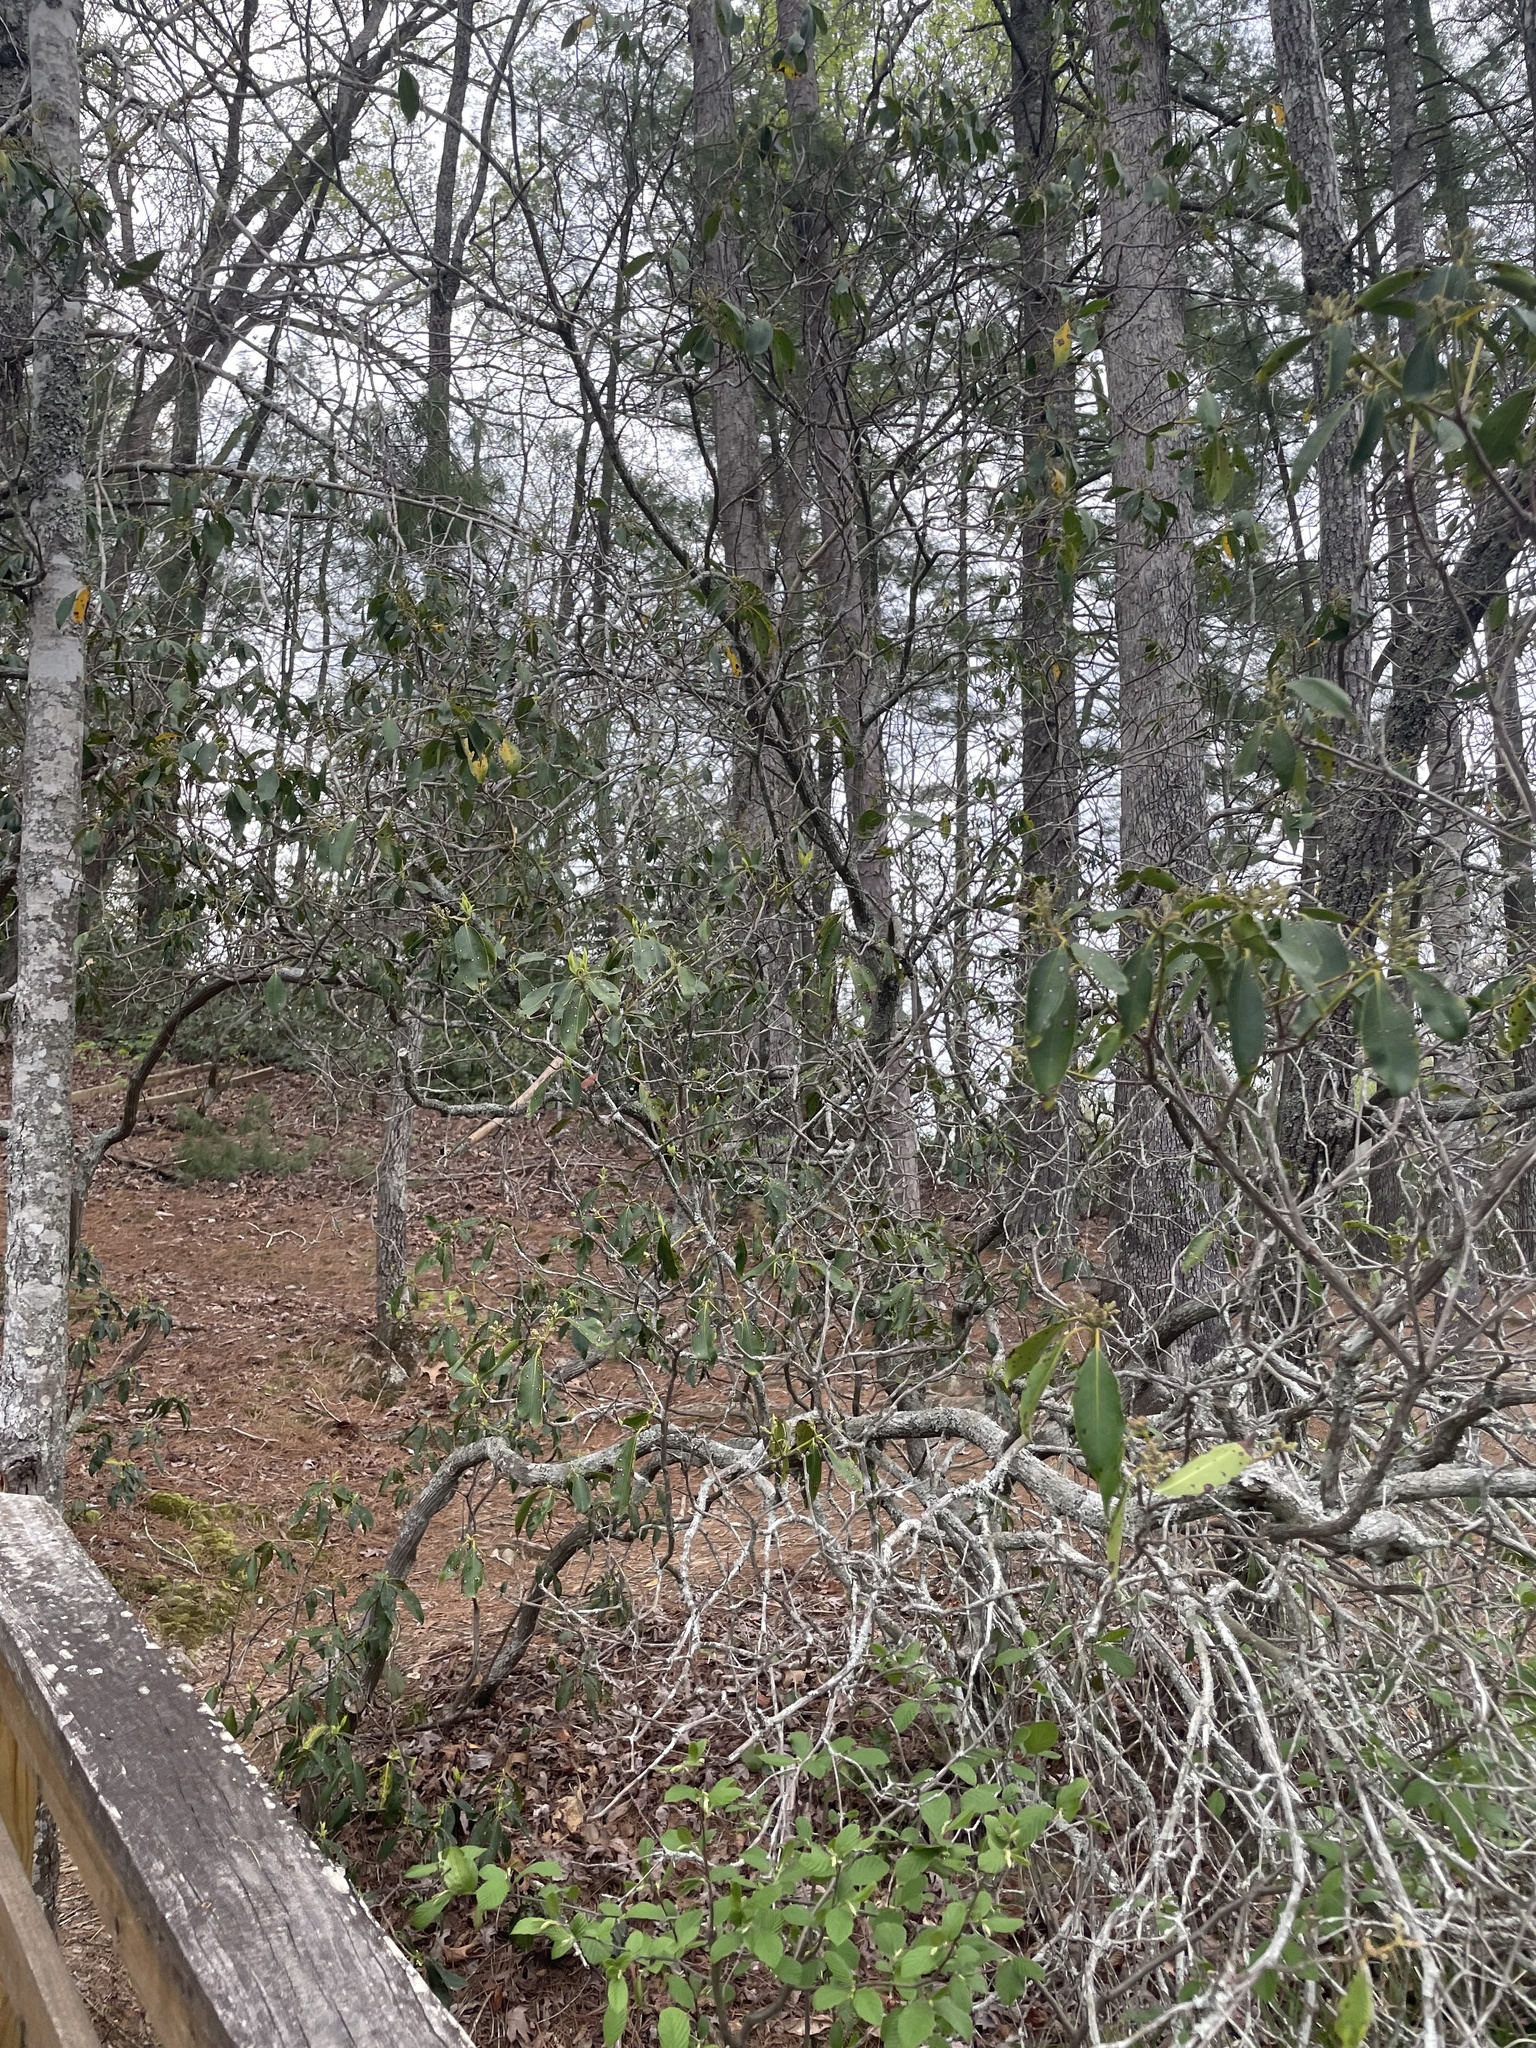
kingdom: Plantae
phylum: Tracheophyta
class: Magnoliopsida
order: Ericales
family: Ericaceae
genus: Kalmia
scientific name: Kalmia latifolia
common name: Mountain-laurel
